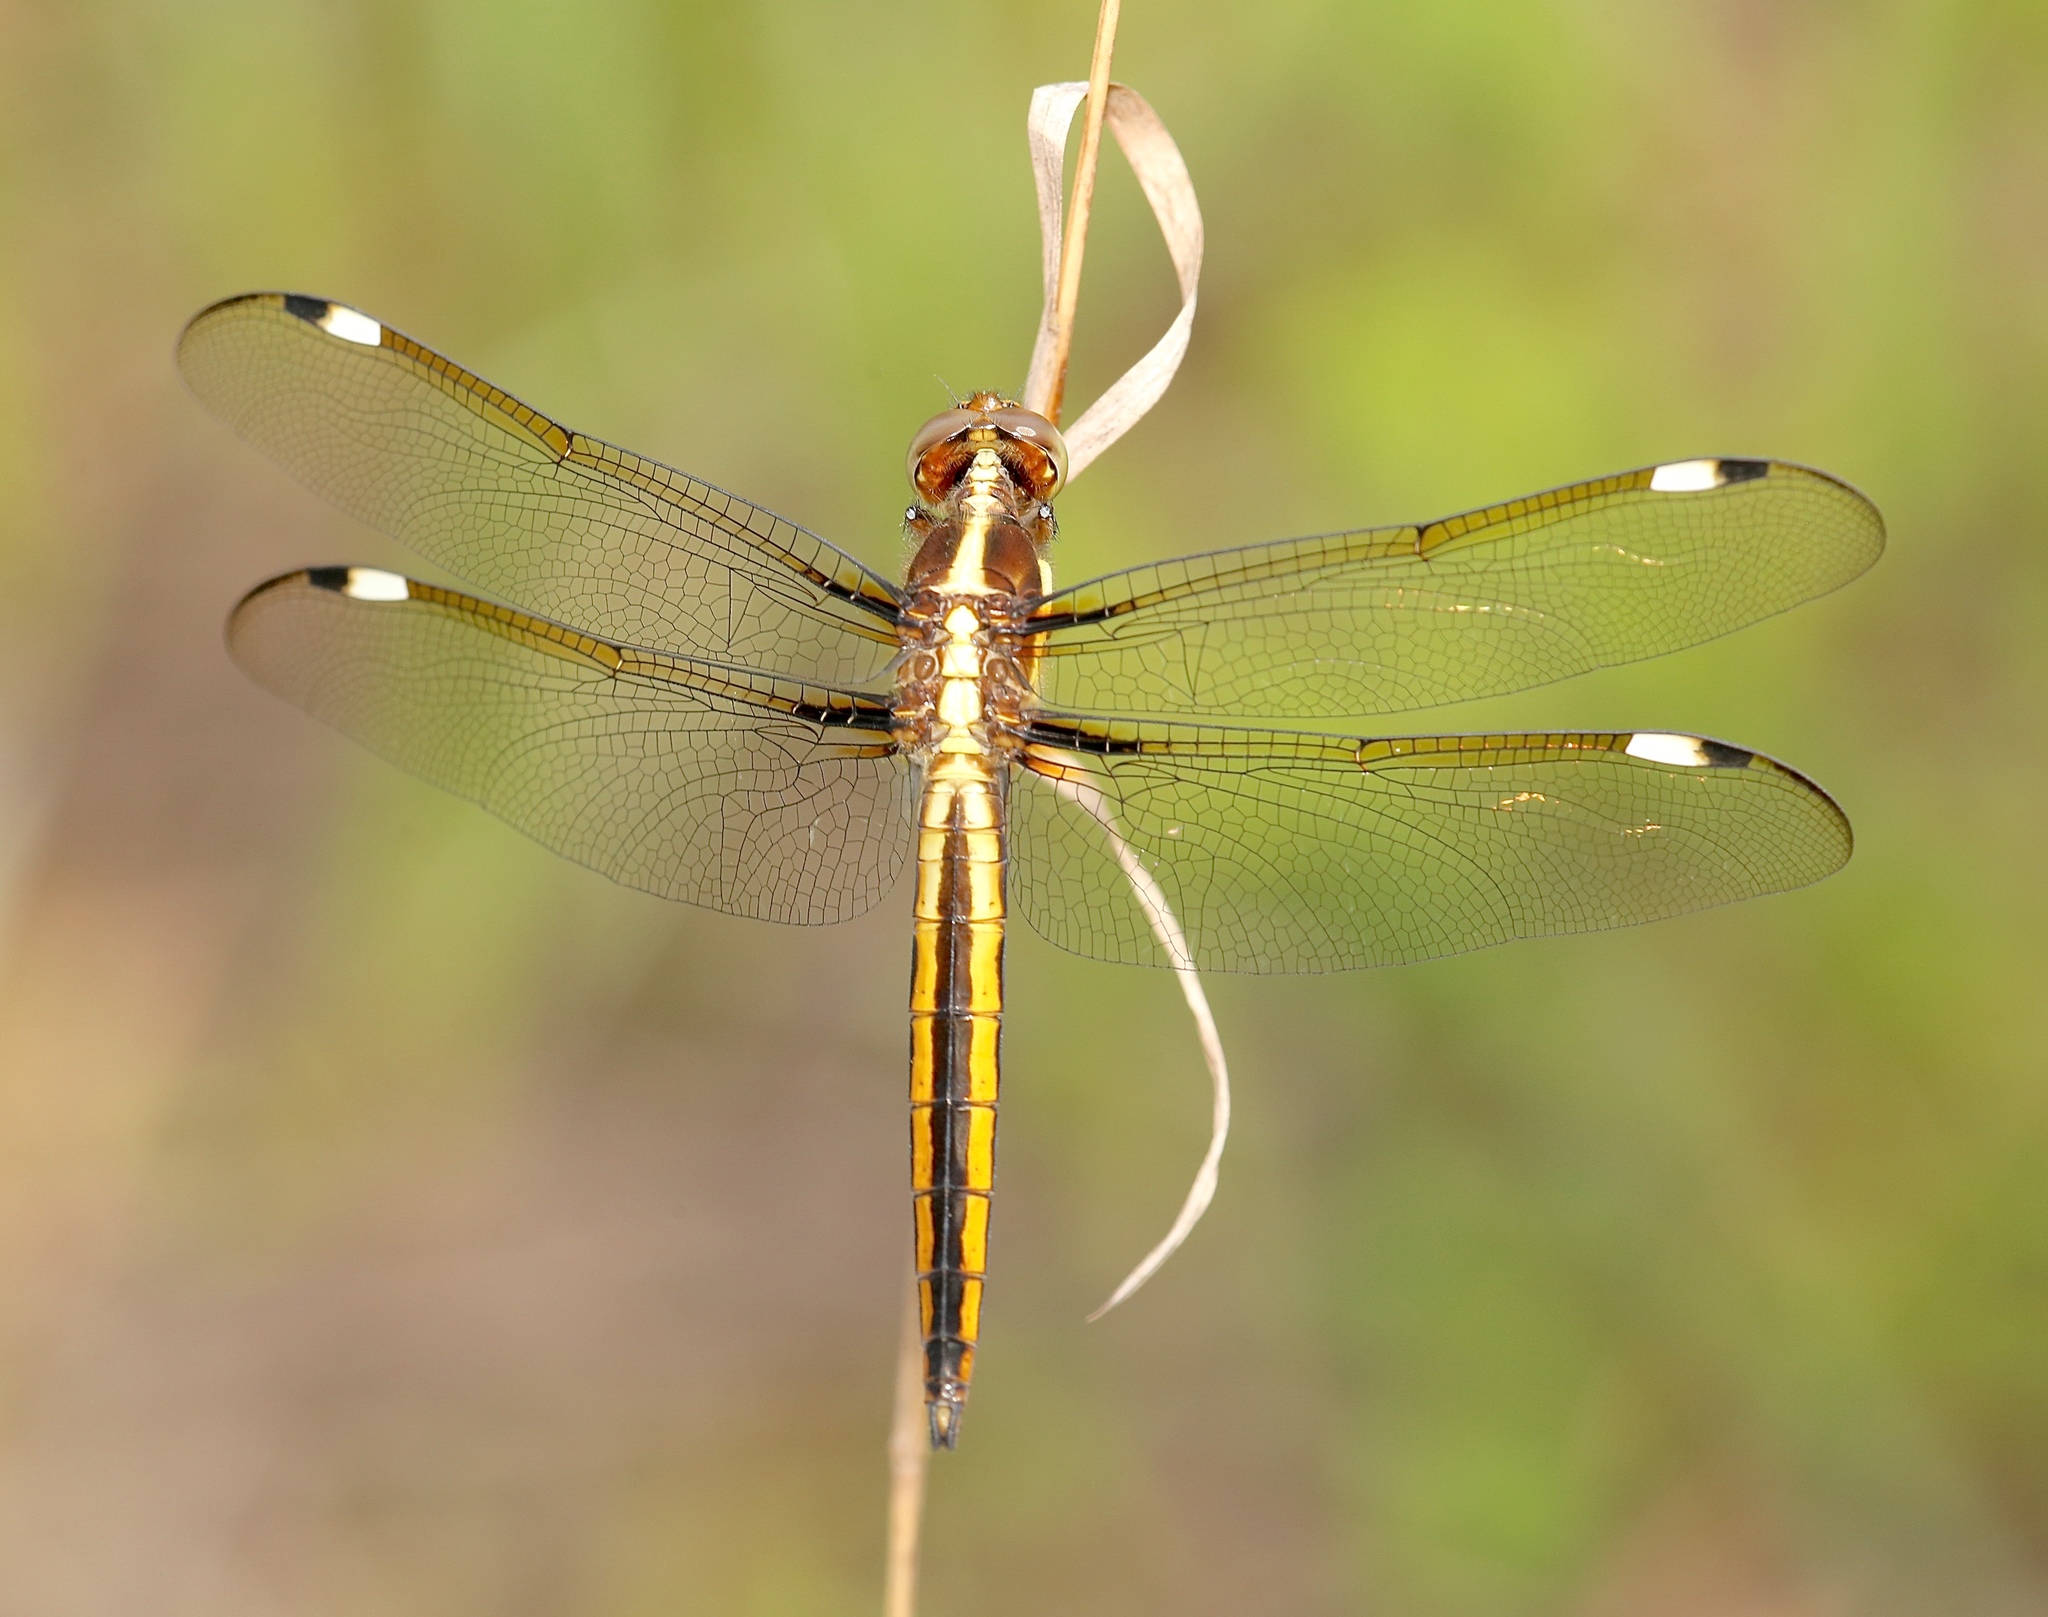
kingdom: Animalia
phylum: Arthropoda
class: Insecta
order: Odonata
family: Libellulidae
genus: Libellula
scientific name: Libellula cyanea
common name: Spangled skimmer
